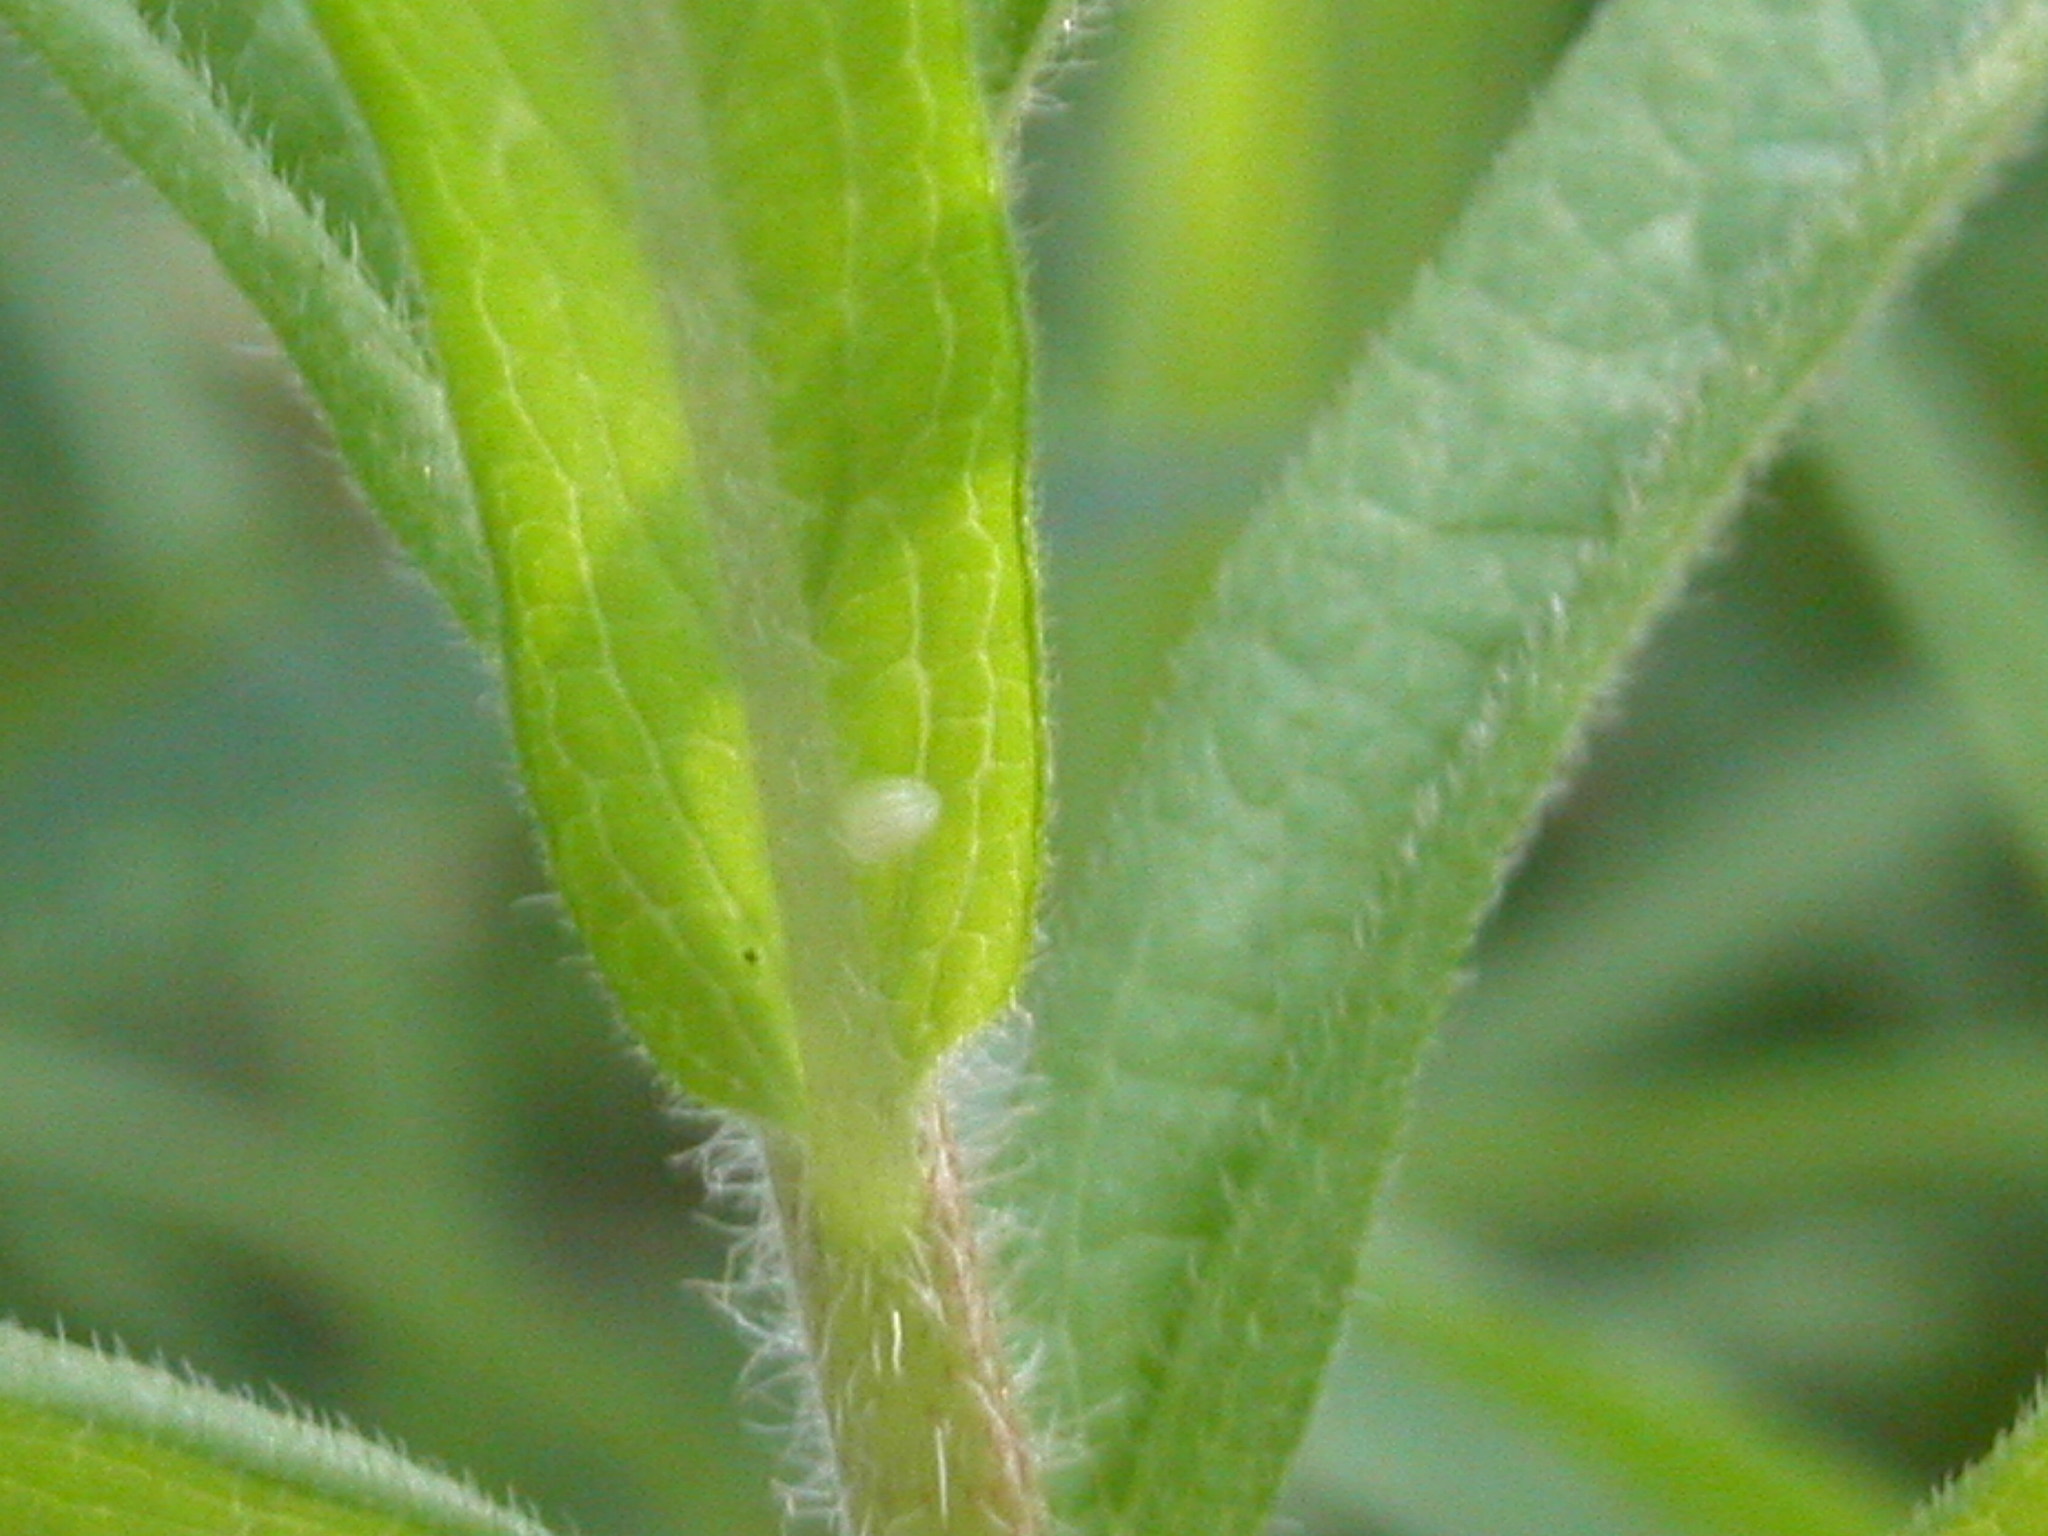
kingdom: Animalia
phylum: Arthropoda
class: Insecta
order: Lepidoptera
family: Nymphalidae
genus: Danaus
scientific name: Danaus plexippus
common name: Monarch
